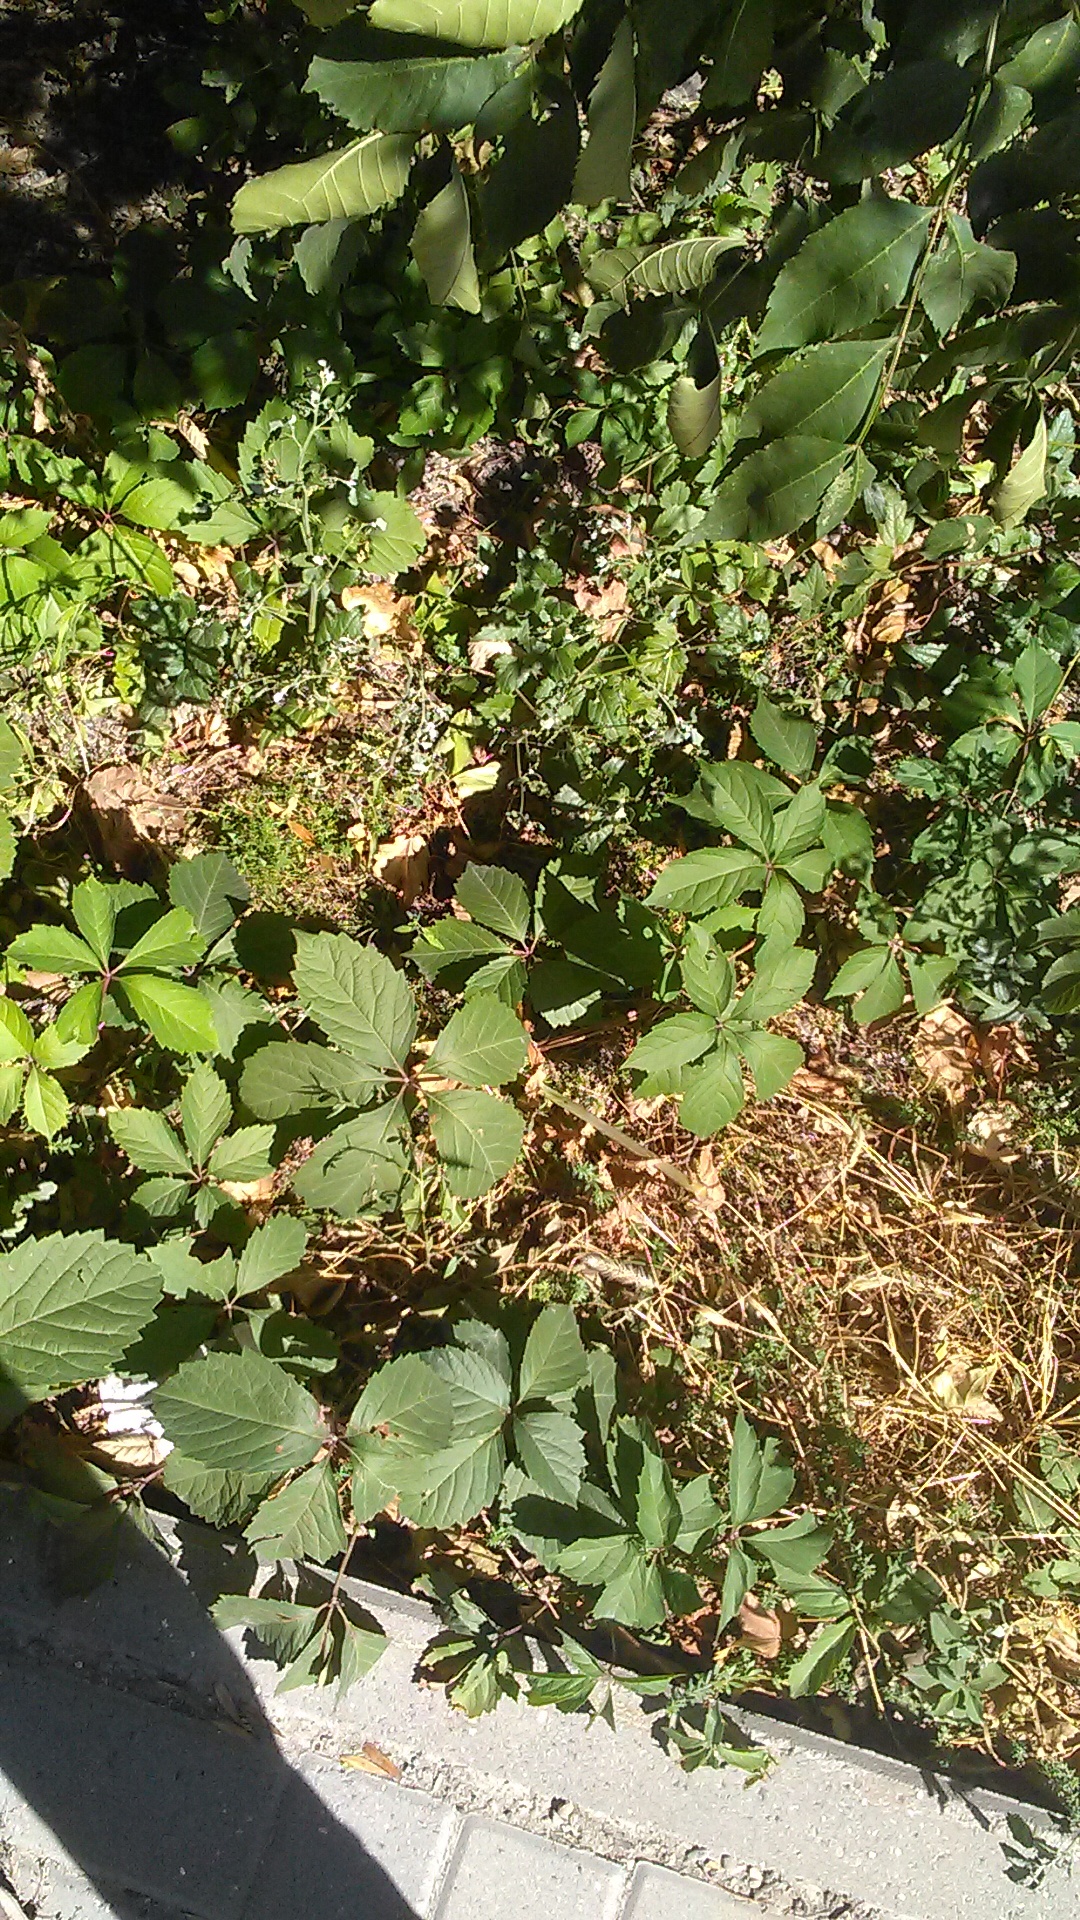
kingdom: Plantae
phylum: Tracheophyta
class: Magnoliopsida
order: Vitales
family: Vitaceae
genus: Parthenocissus
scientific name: Parthenocissus inserta
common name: False virginia-creeper
